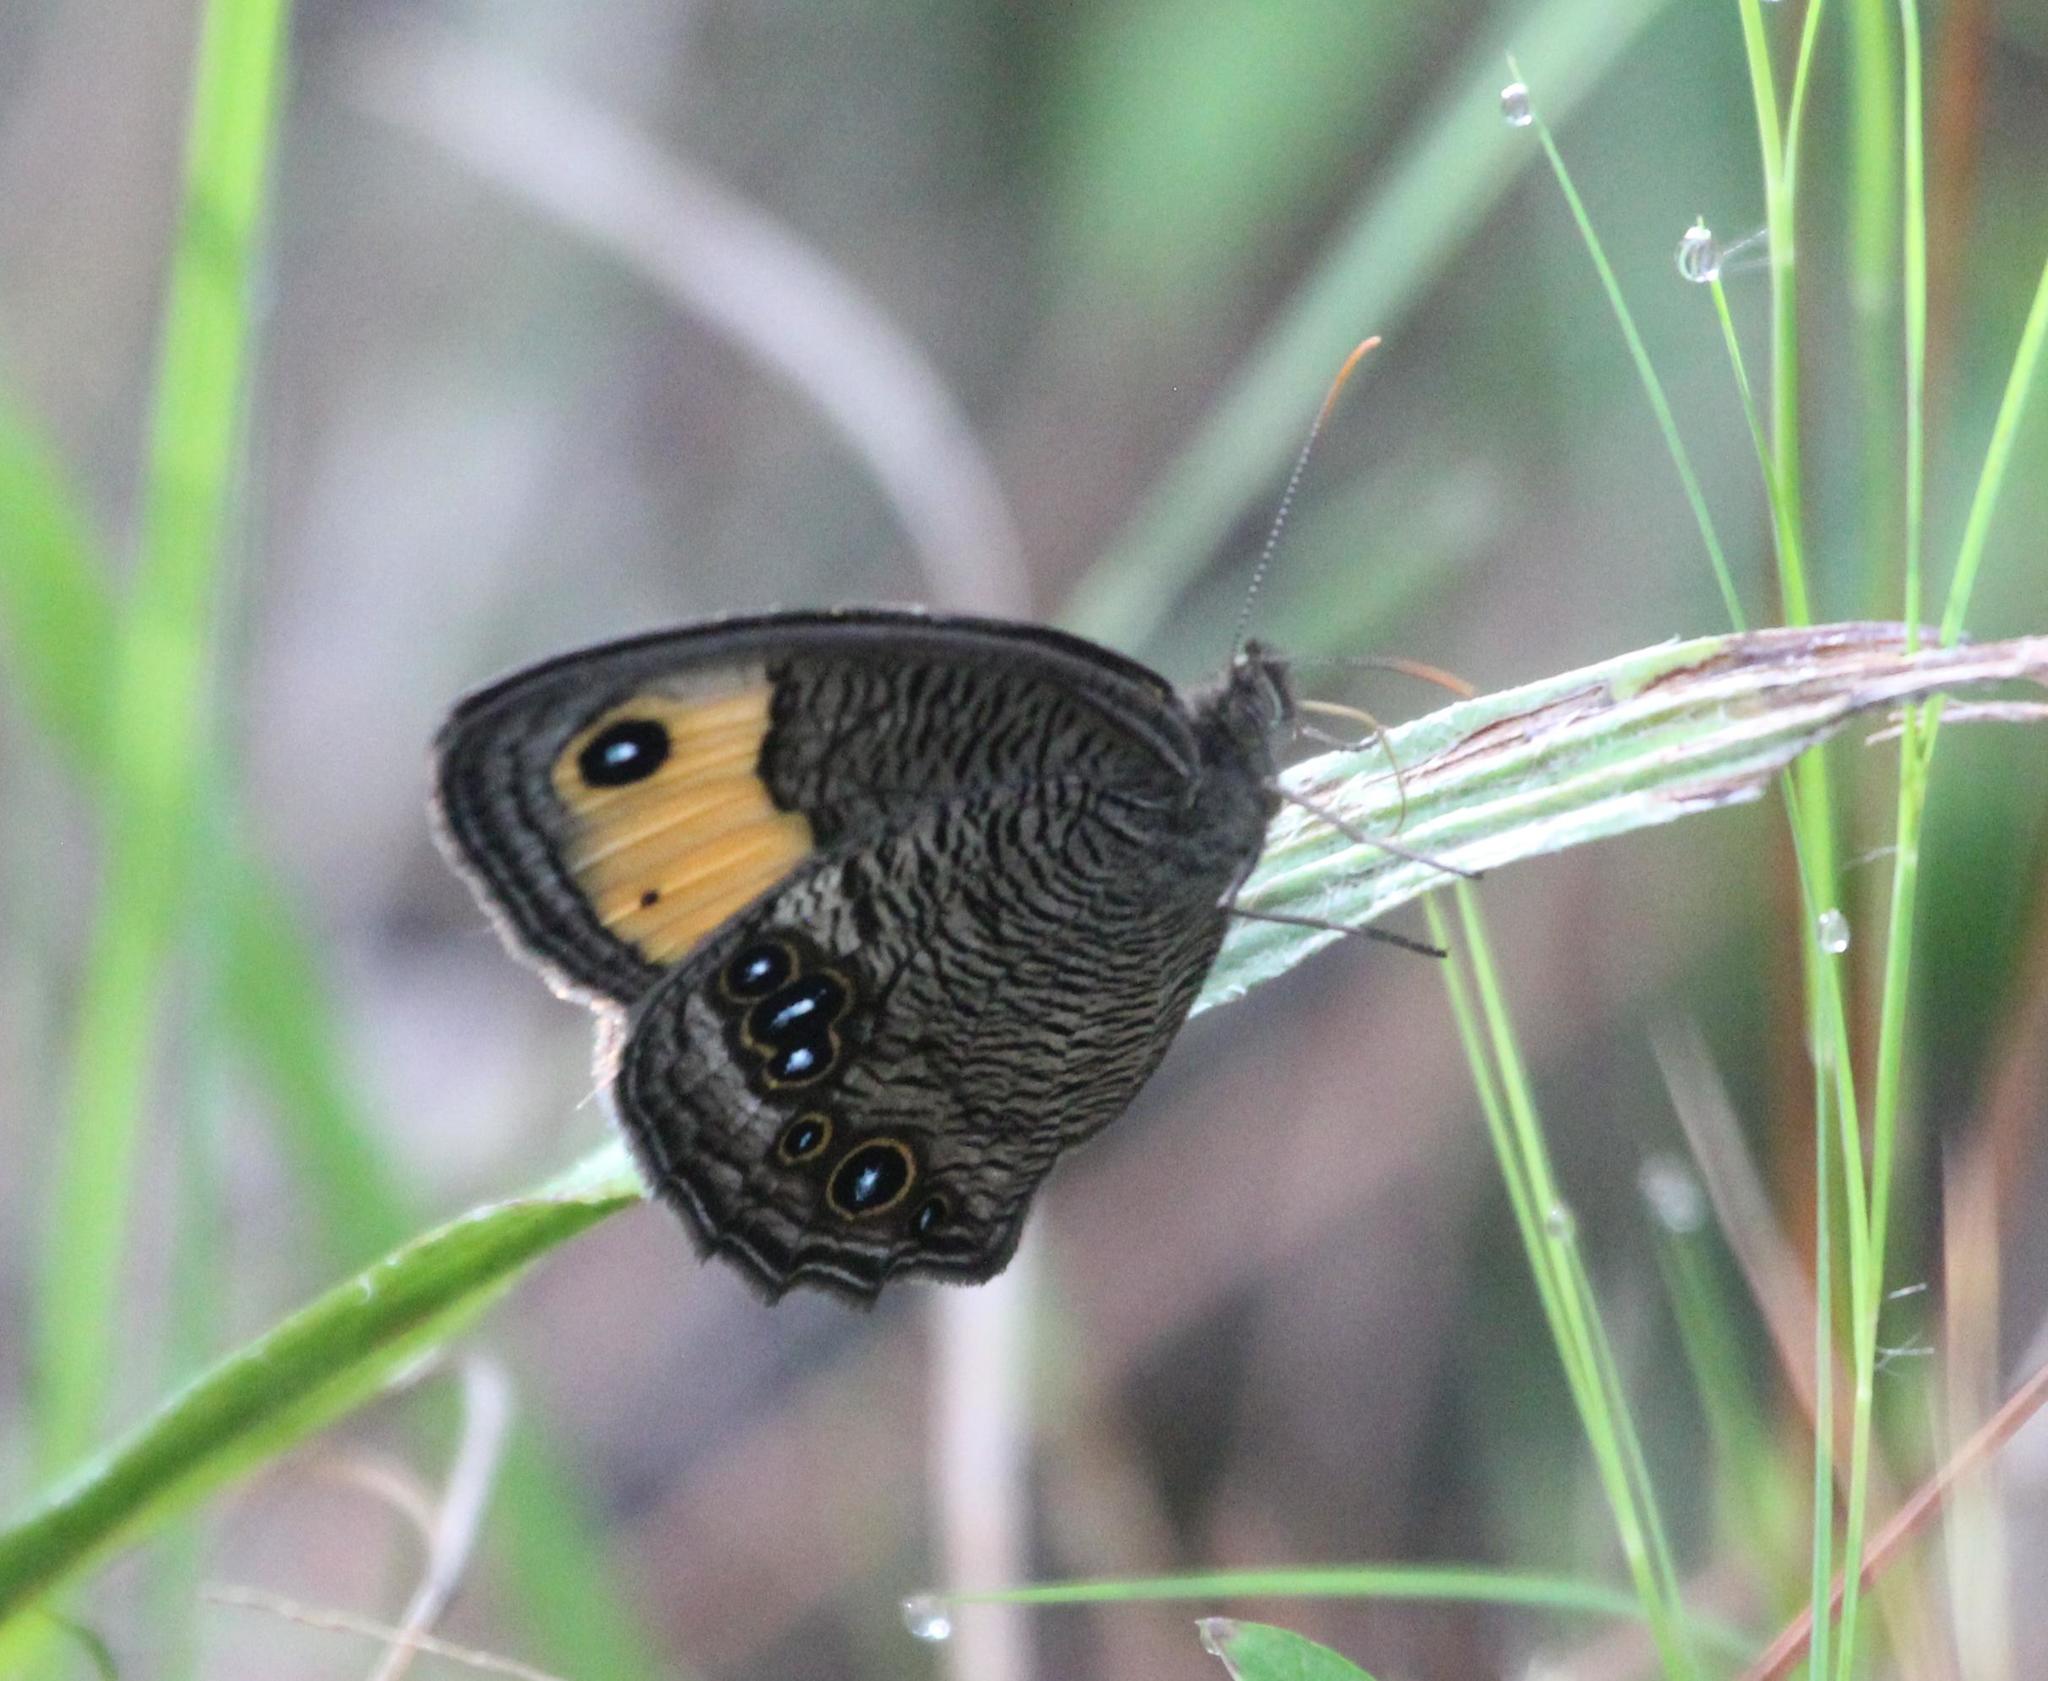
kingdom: Animalia
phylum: Arthropoda
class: Insecta
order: Lepidoptera
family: Nymphalidae
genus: Cercyonis
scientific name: Cercyonis pegala
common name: Common wood-nymph
